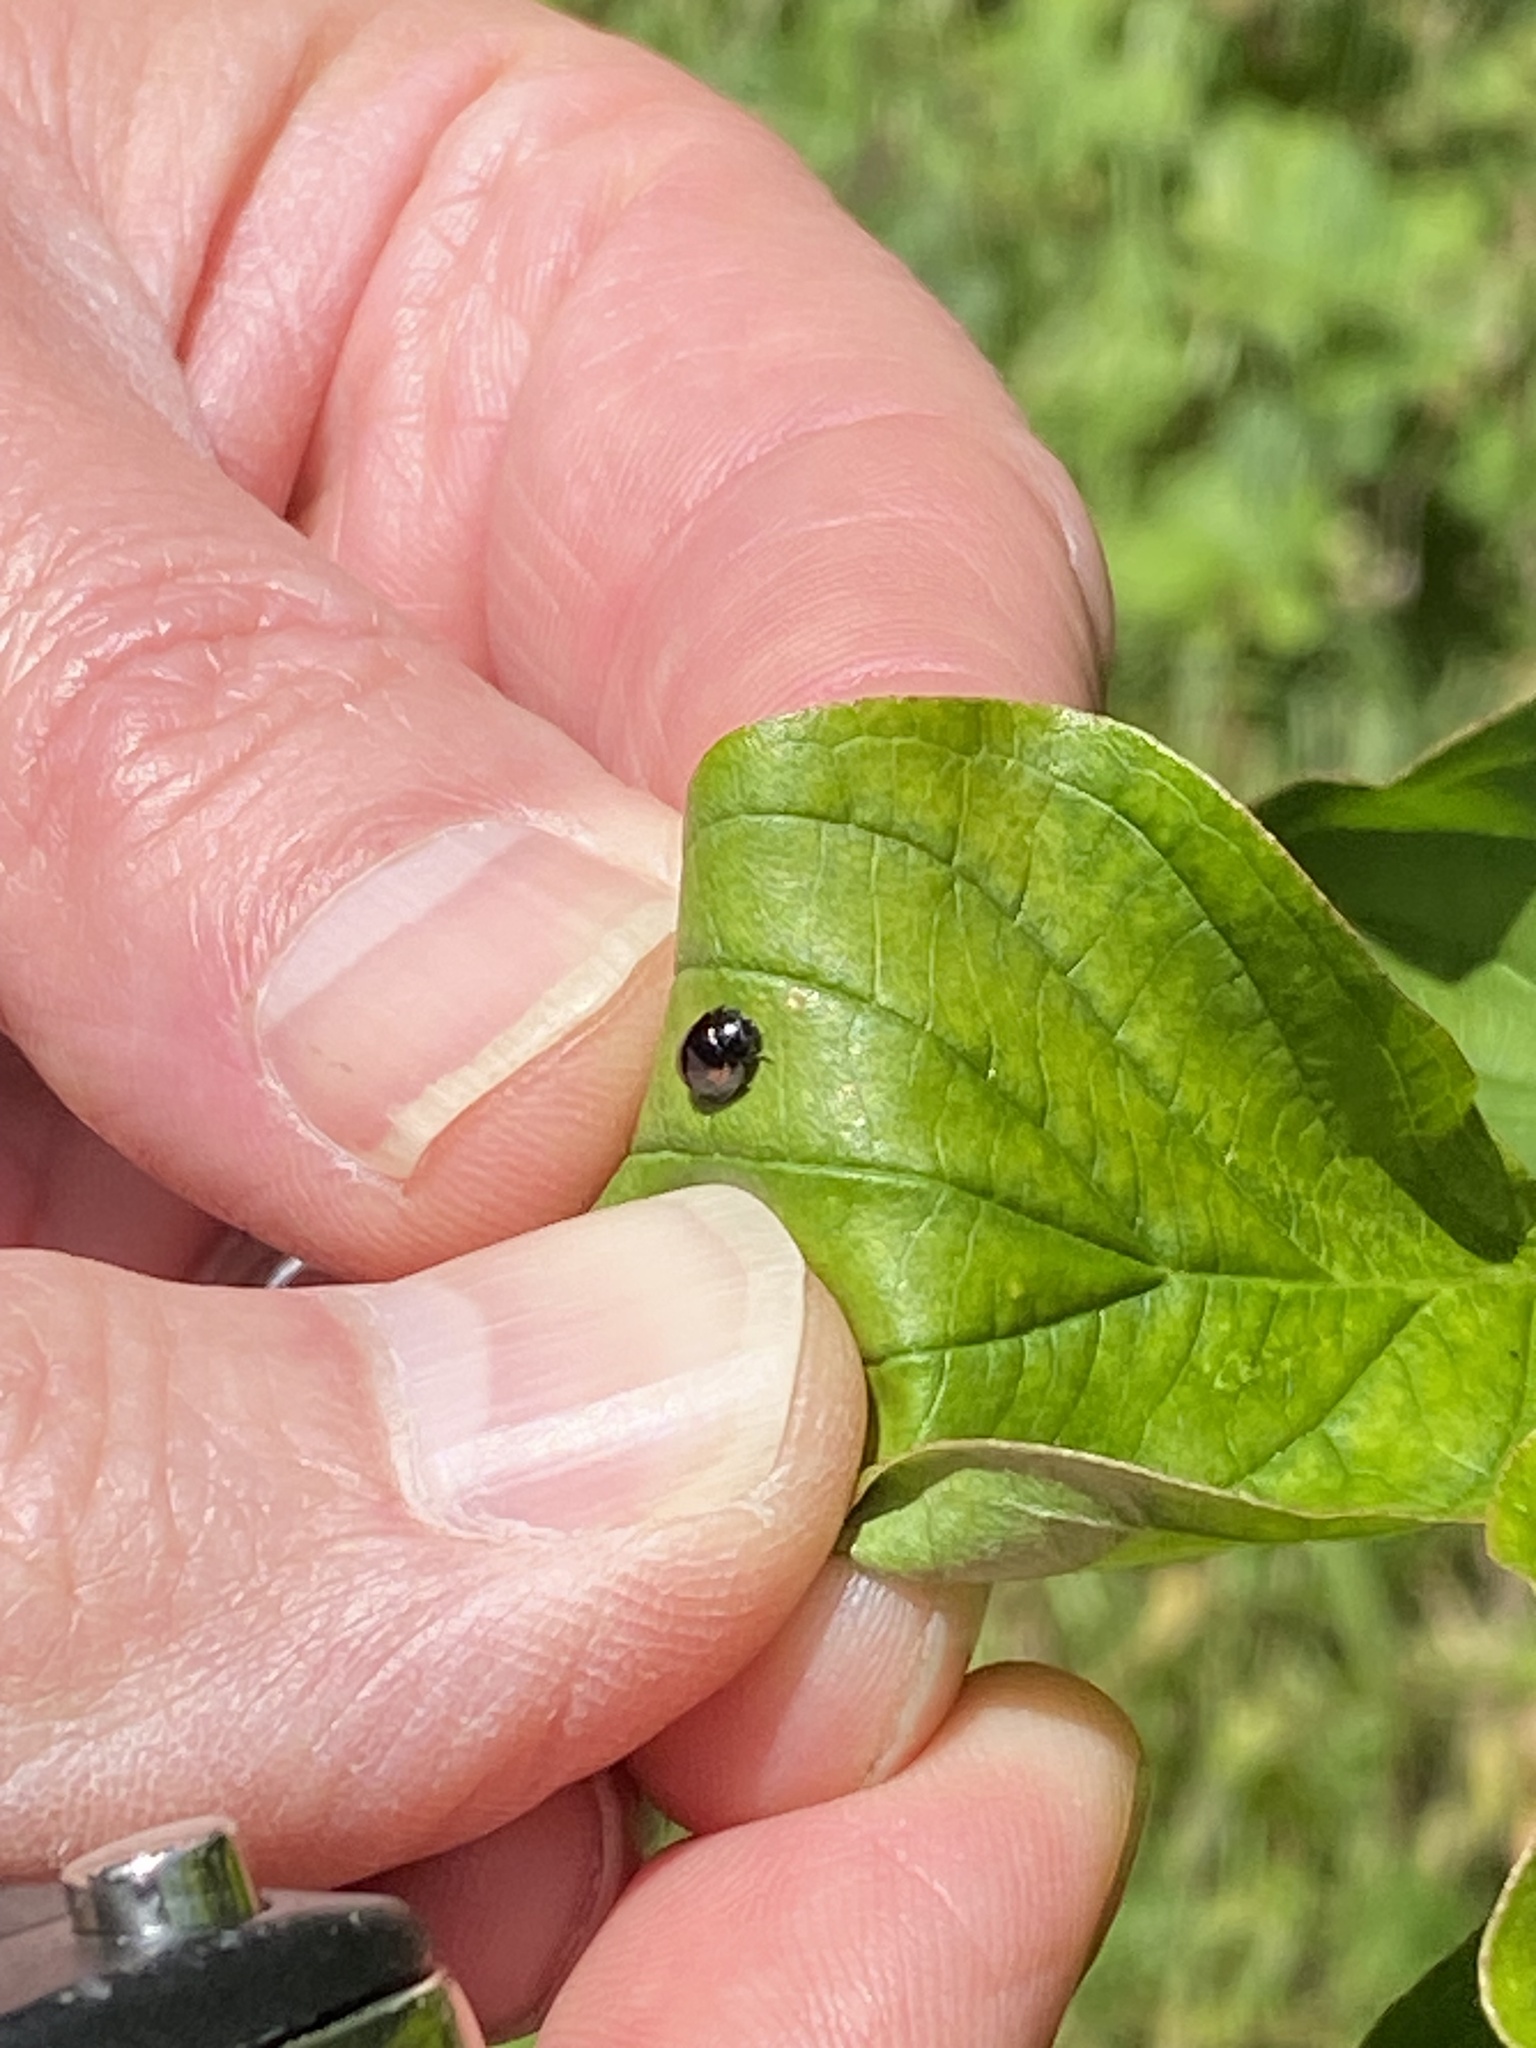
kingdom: Animalia
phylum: Arthropoda
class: Insecta
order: Coleoptera
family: Coccinellidae
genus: Brumus
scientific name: Brumus quadripustulatus
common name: Ladybird beetle
